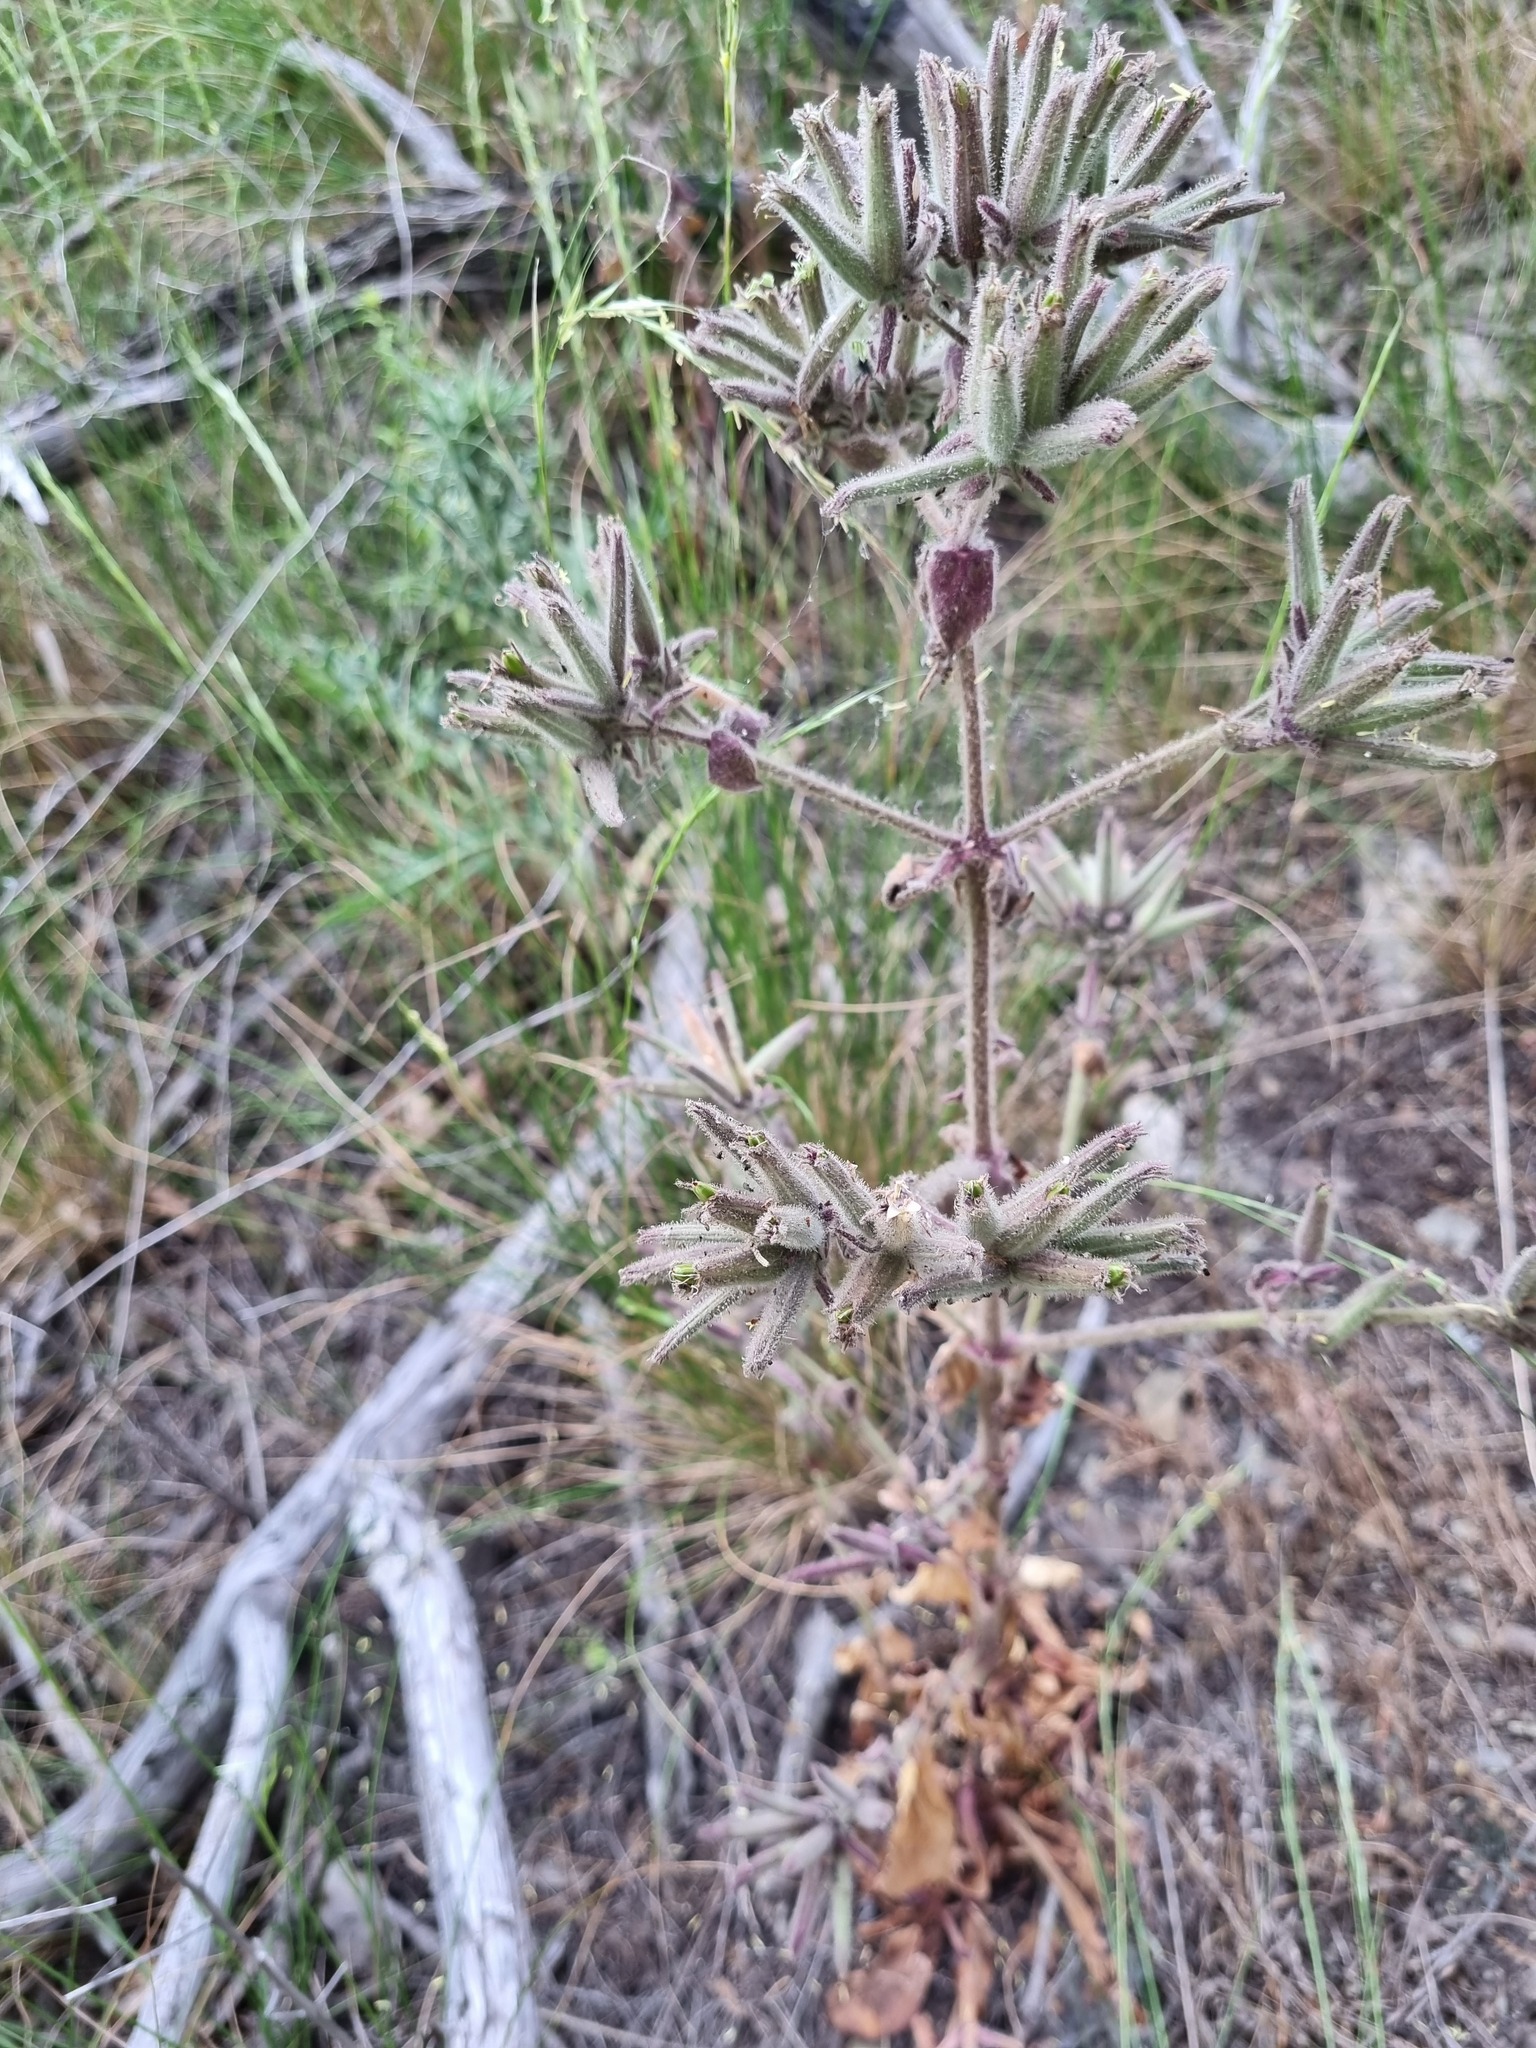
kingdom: Plantae
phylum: Tracheophyta
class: Magnoliopsida
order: Caryophyllales
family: Caryophyllaceae
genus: Saponaria
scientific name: Saponaria glutinosa
